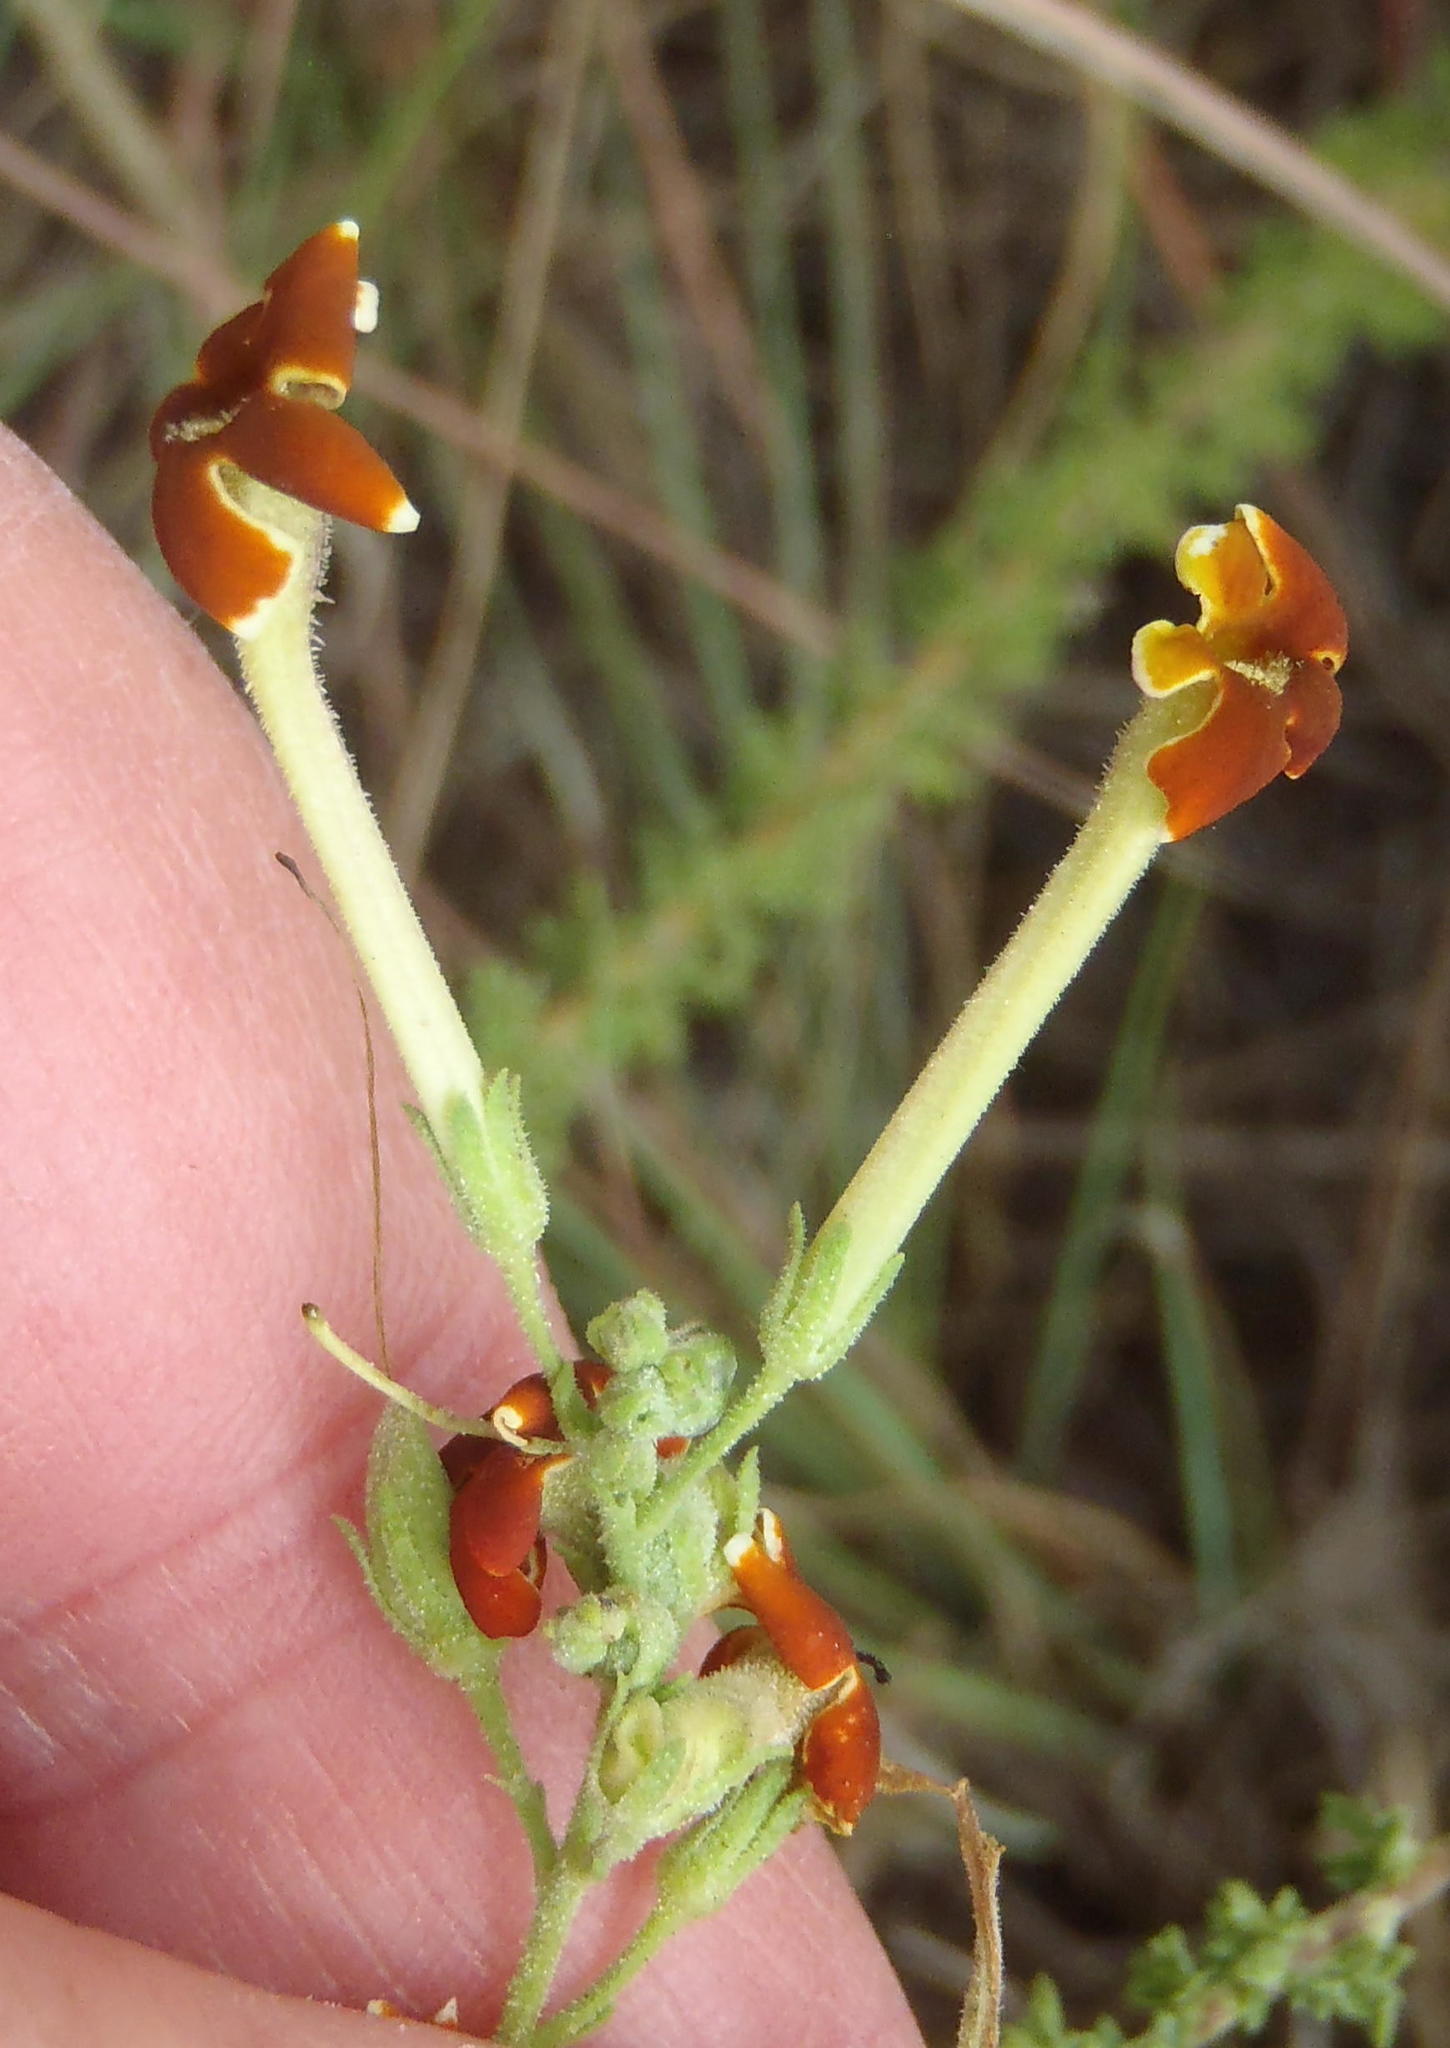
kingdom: Plantae
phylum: Tracheophyta
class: Magnoliopsida
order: Lamiales
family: Scrophulariaceae
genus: Jamesbrittenia
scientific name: Jamesbrittenia burkeana
